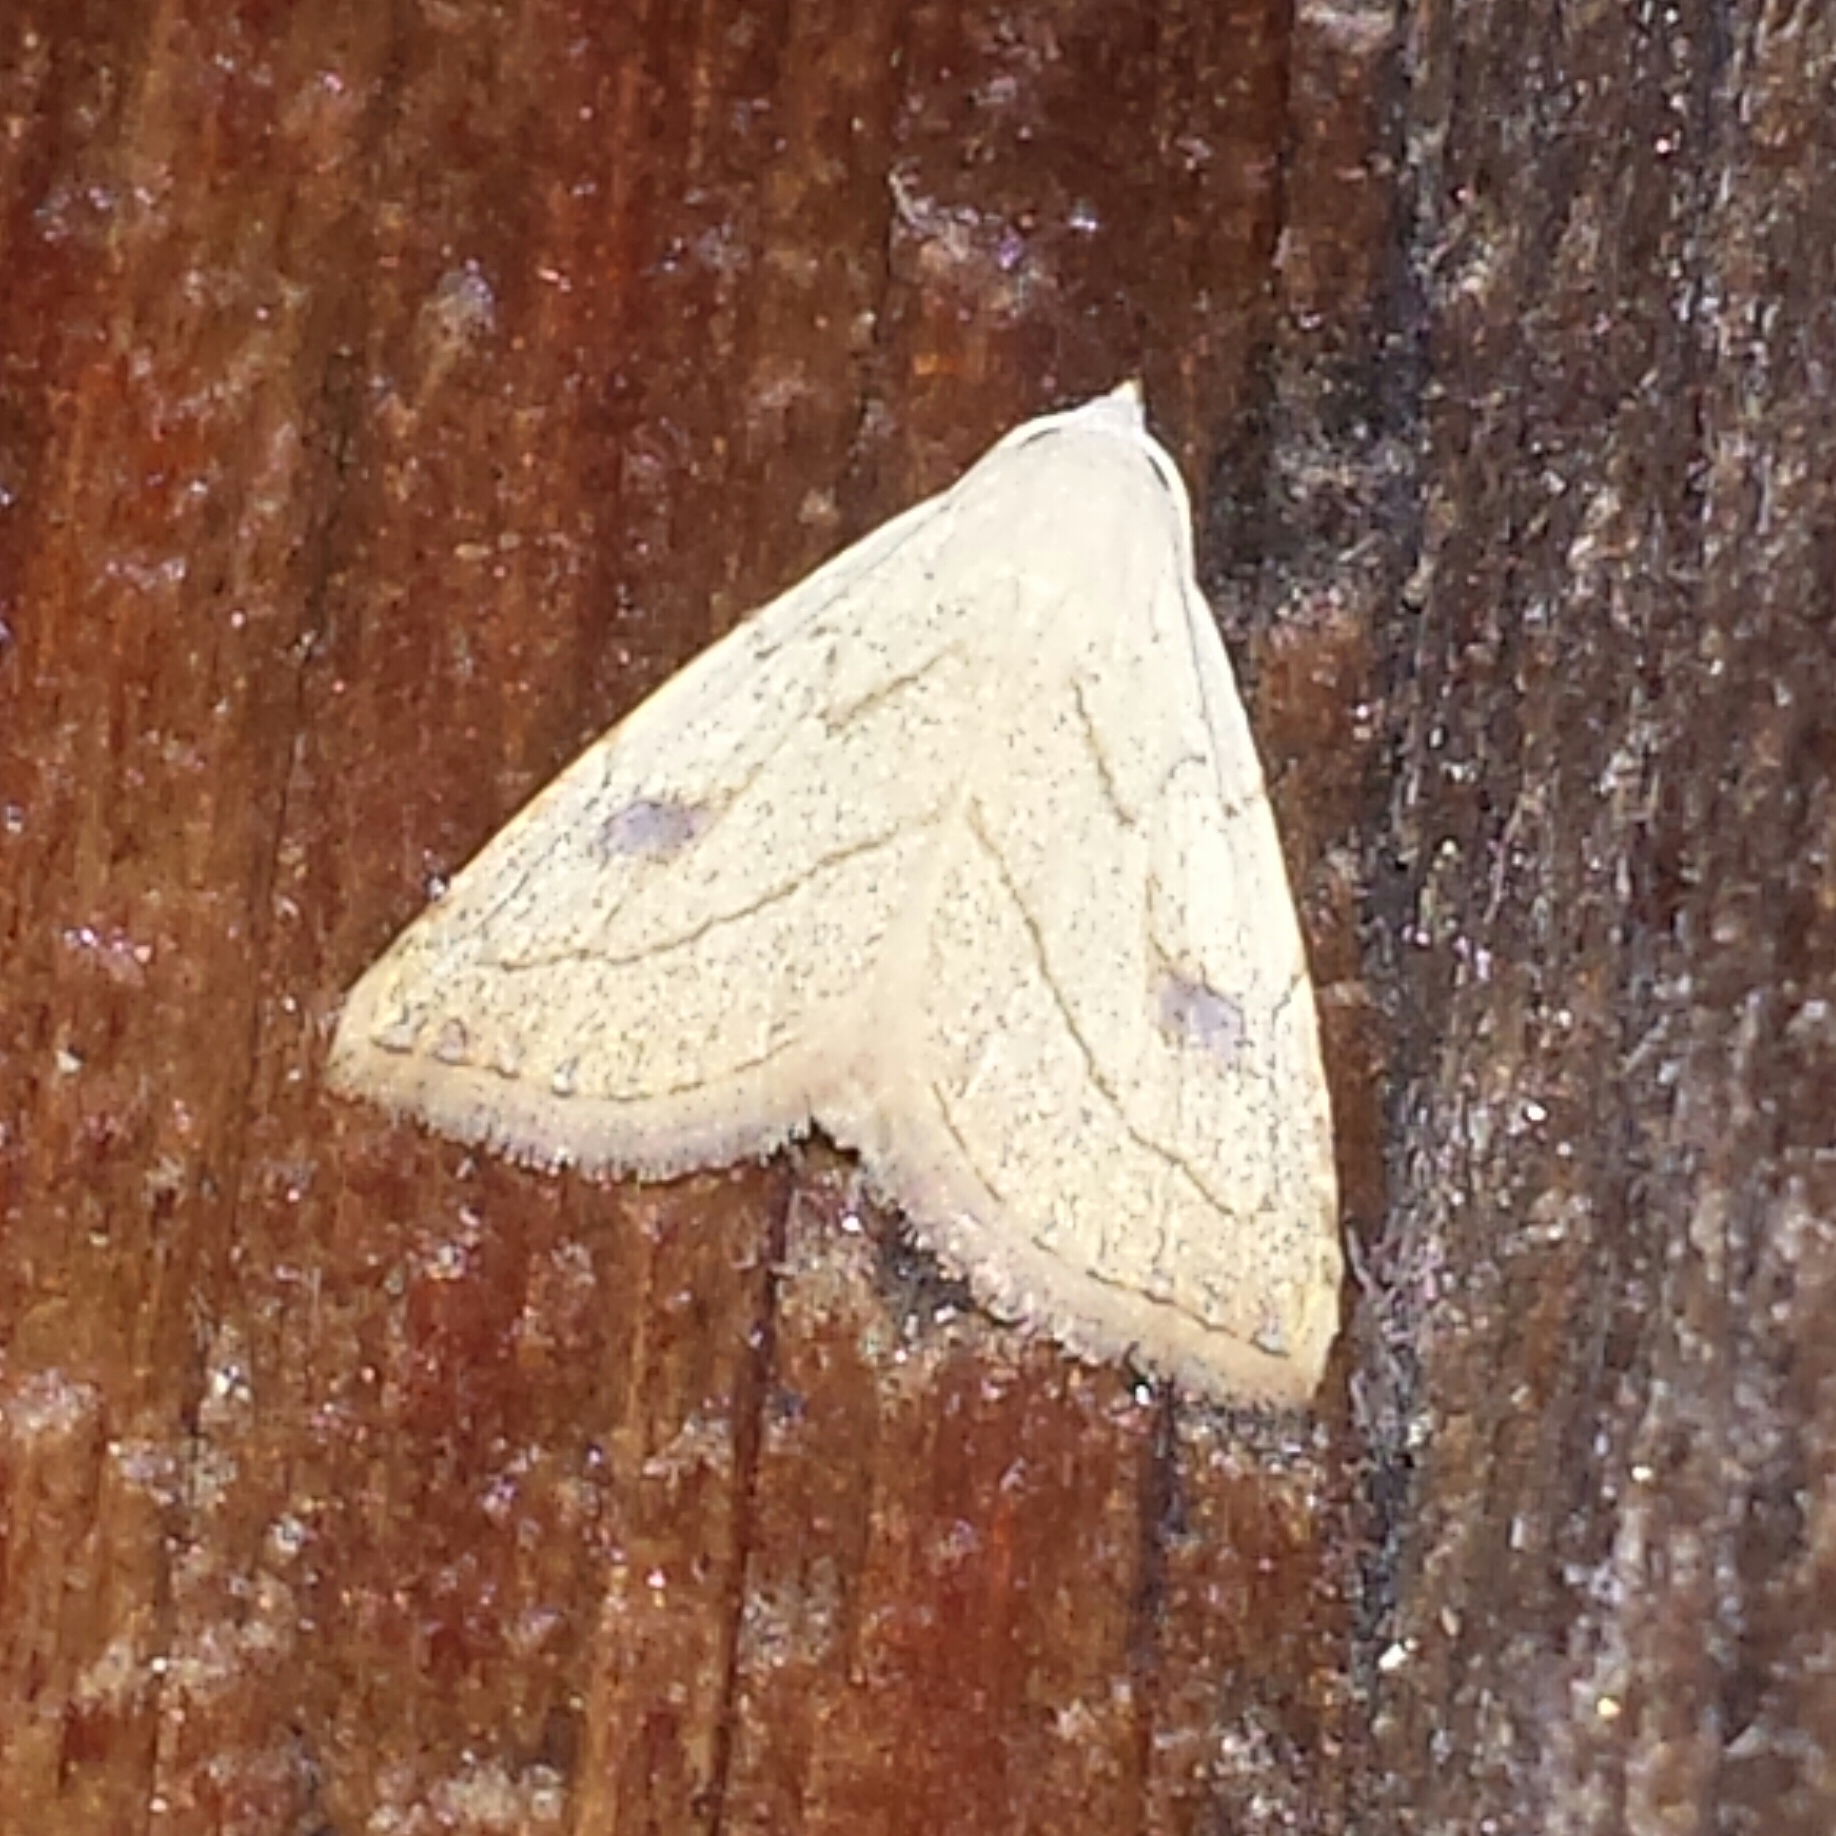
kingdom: Animalia
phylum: Arthropoda
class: Insecta
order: Lepidoptera
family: Erebidae
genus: Rivula
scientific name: Rivula propinqualis
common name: Spotted grass moth
